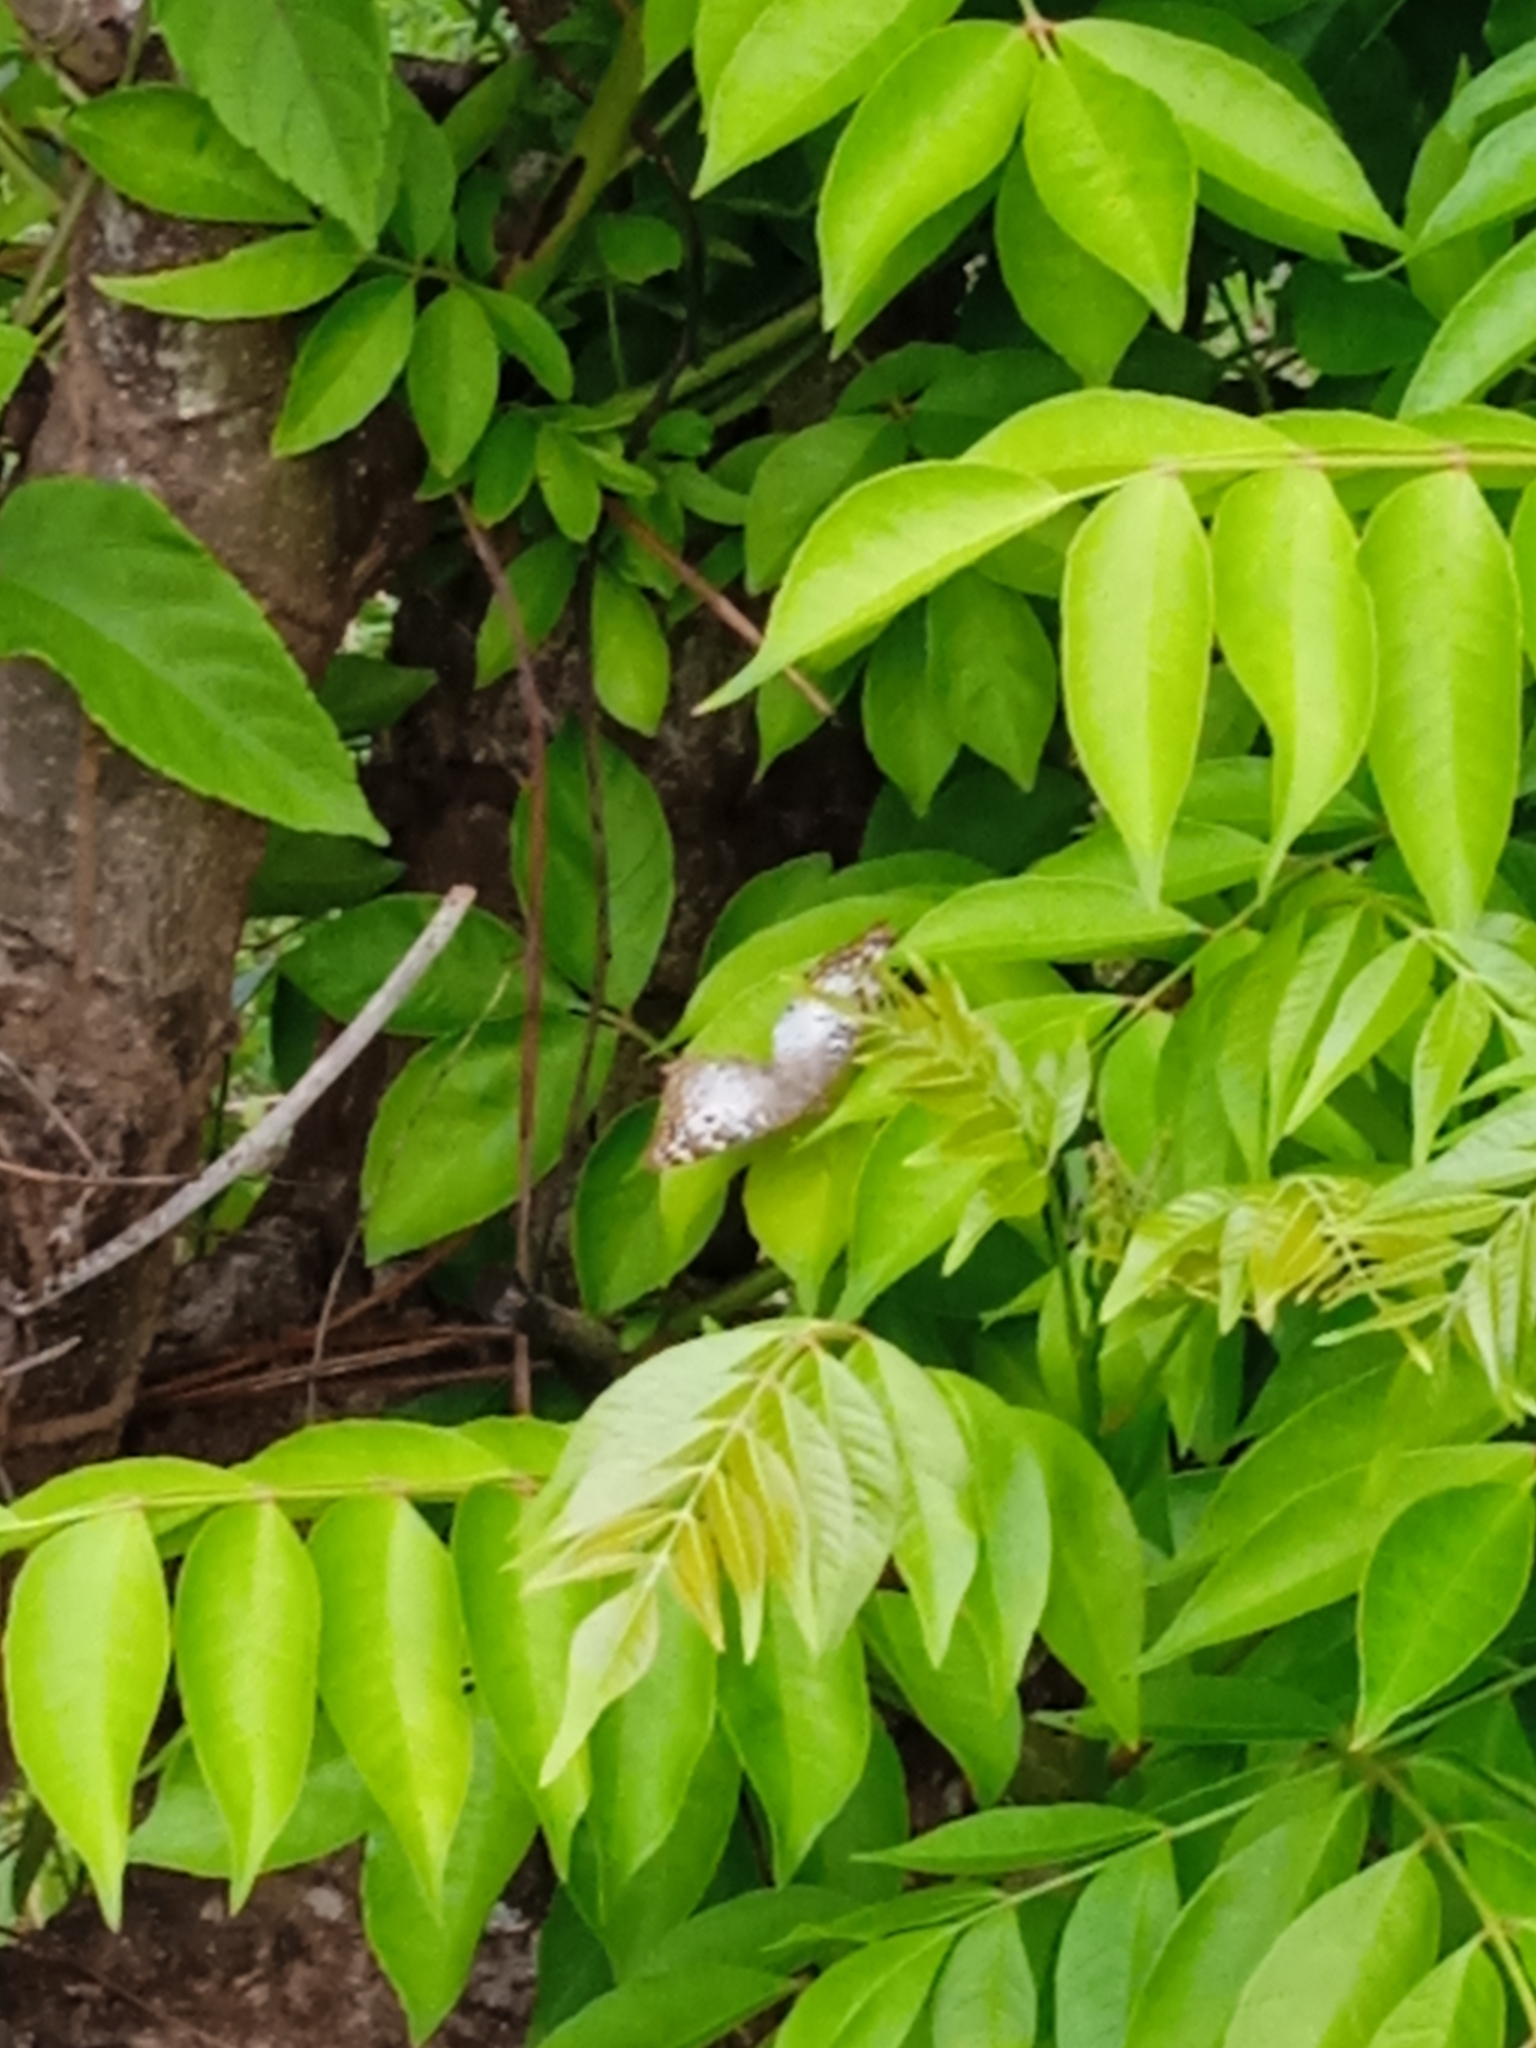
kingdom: Animalia
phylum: Arthropoda
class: Insecta
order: Lepidoptera
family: Nymphalidae
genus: Anartia
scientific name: Anartia jatrophae
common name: White peacock
